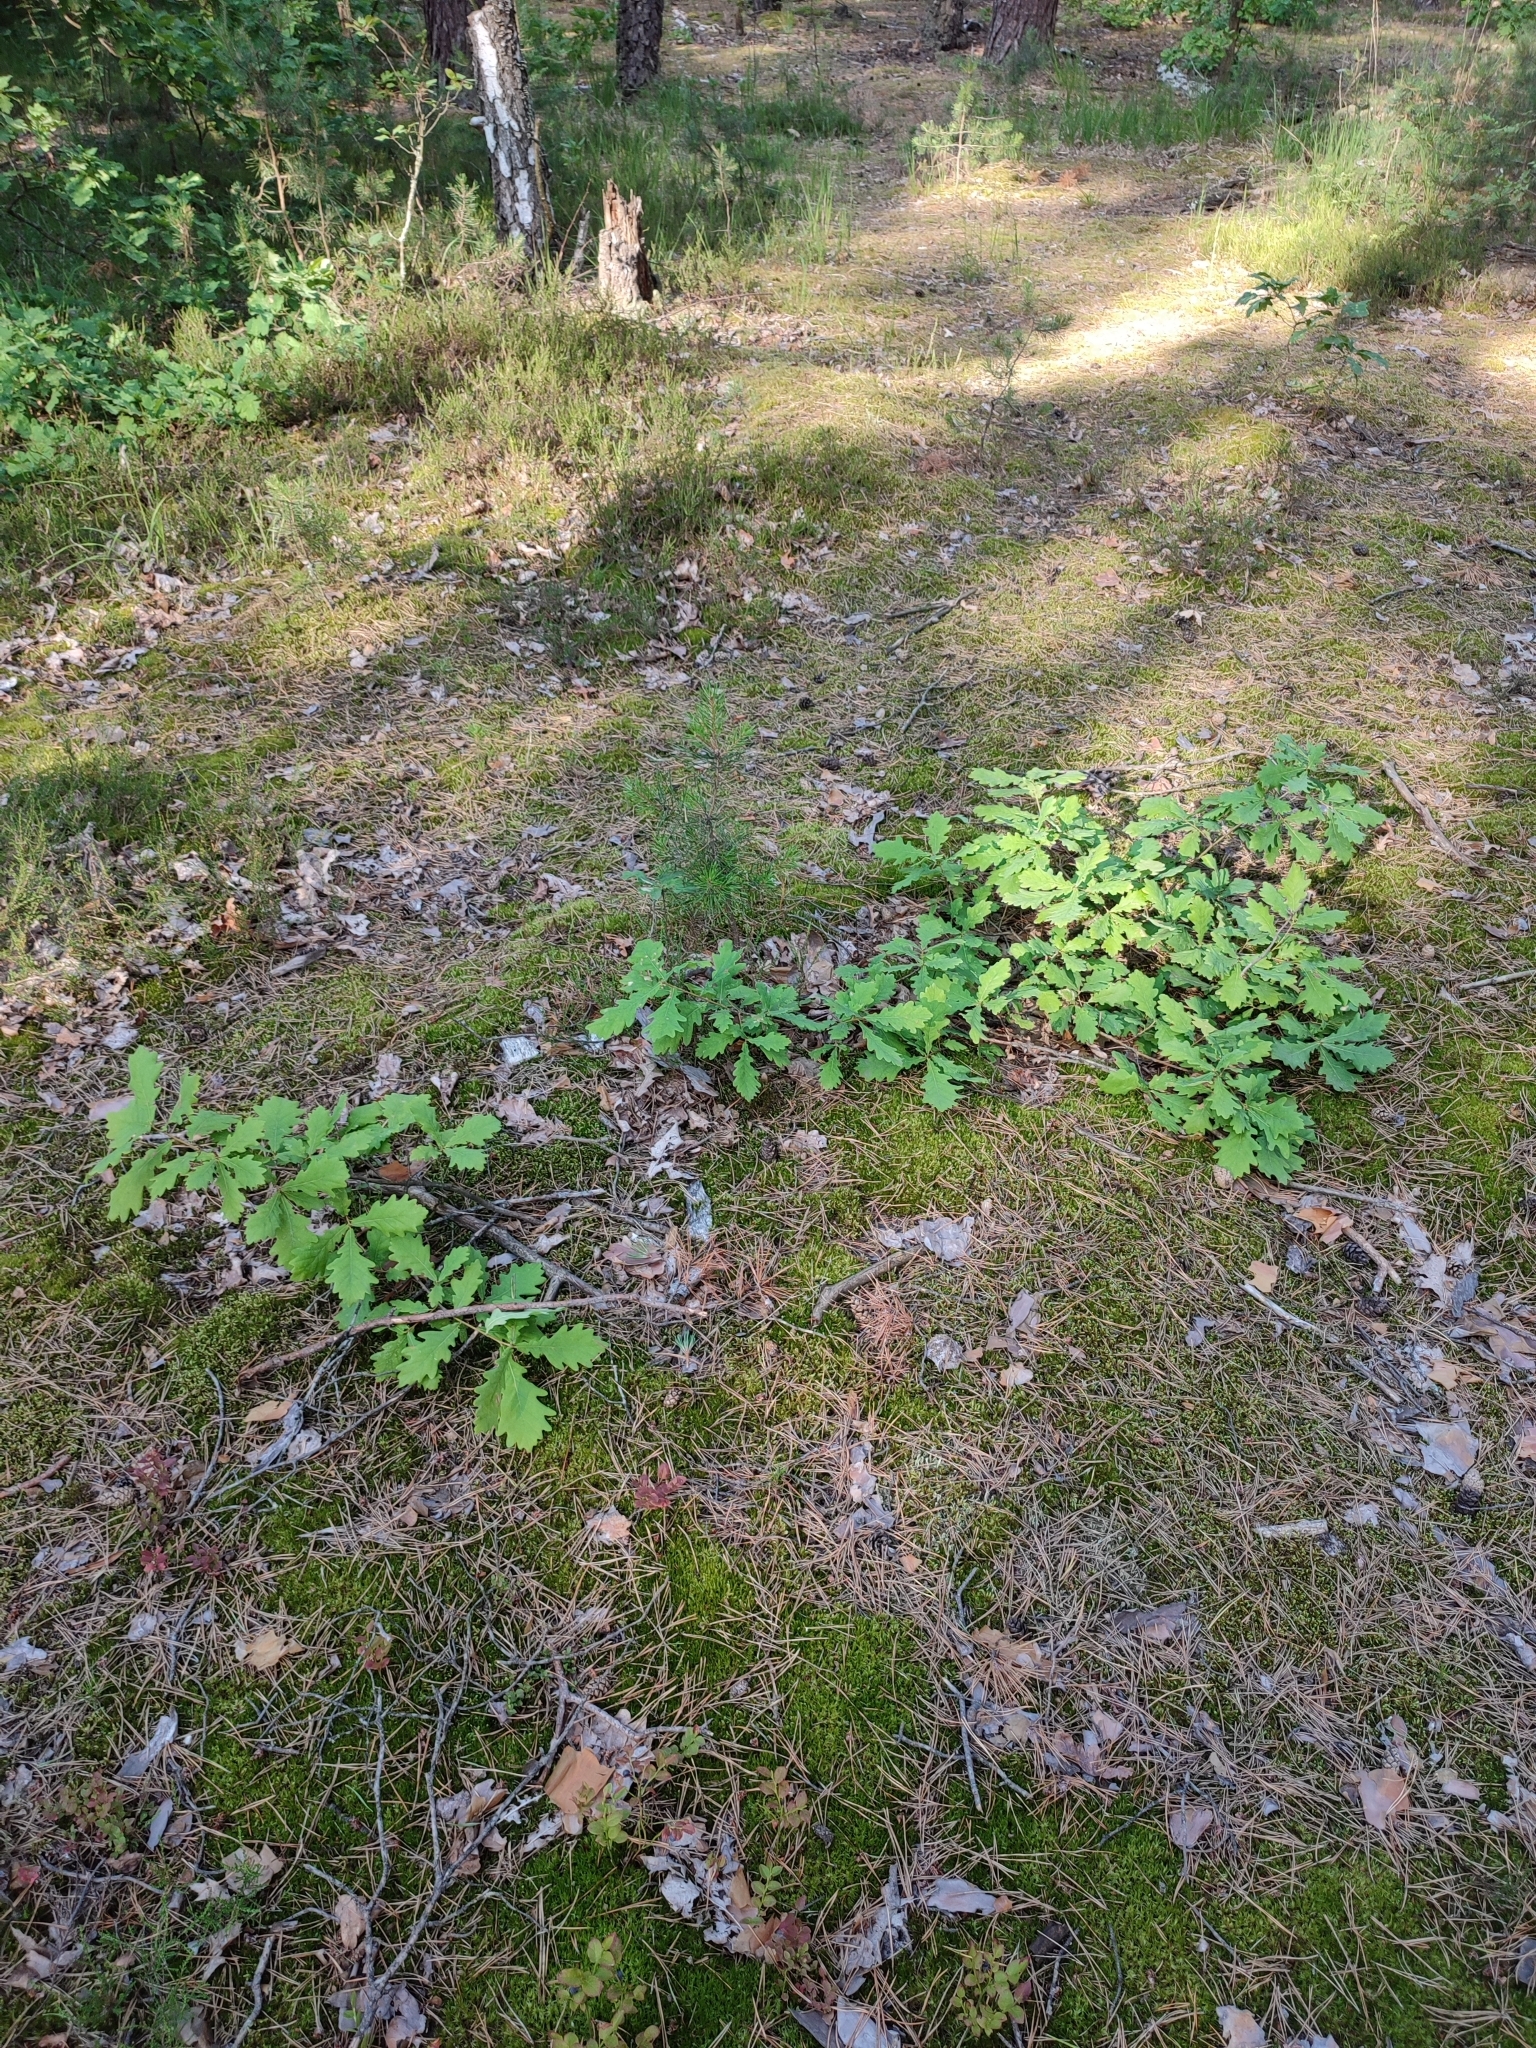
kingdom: Plantae
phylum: Tracheophyta
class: Magnoliopsida
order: Fagales
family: Fagaceae
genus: Quercus
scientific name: Quercus robur
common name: Pedunculate oak
